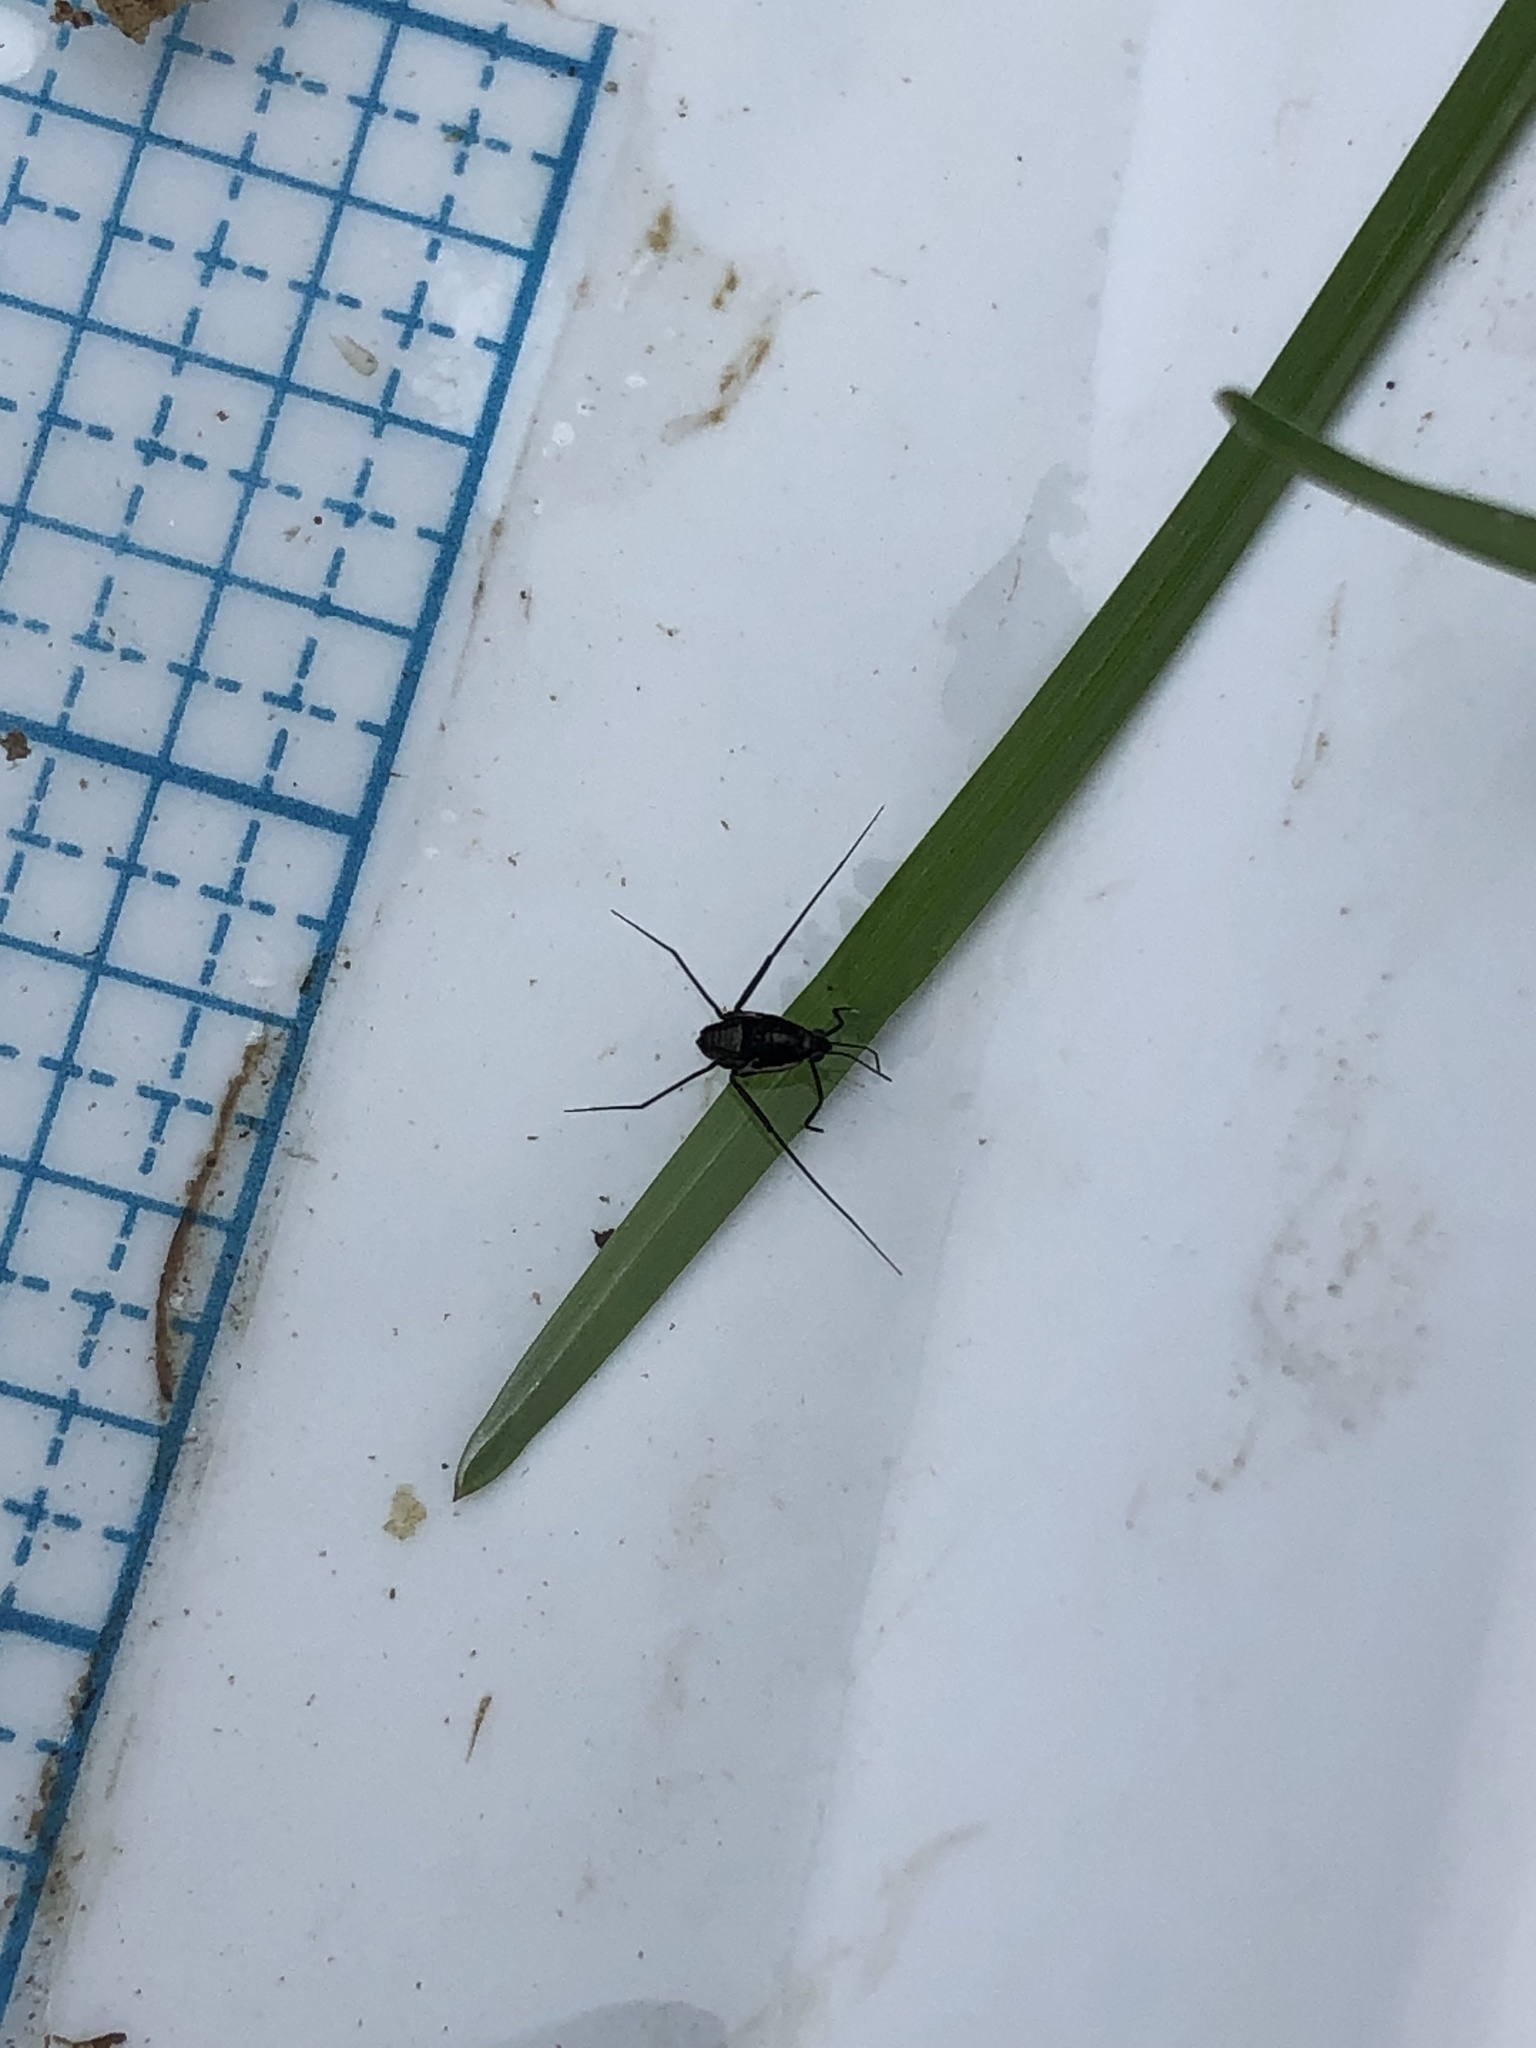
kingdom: Animalia
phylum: Arthropoda
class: Insecta
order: Hemiptera
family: Gerridae
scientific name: Gerridae
